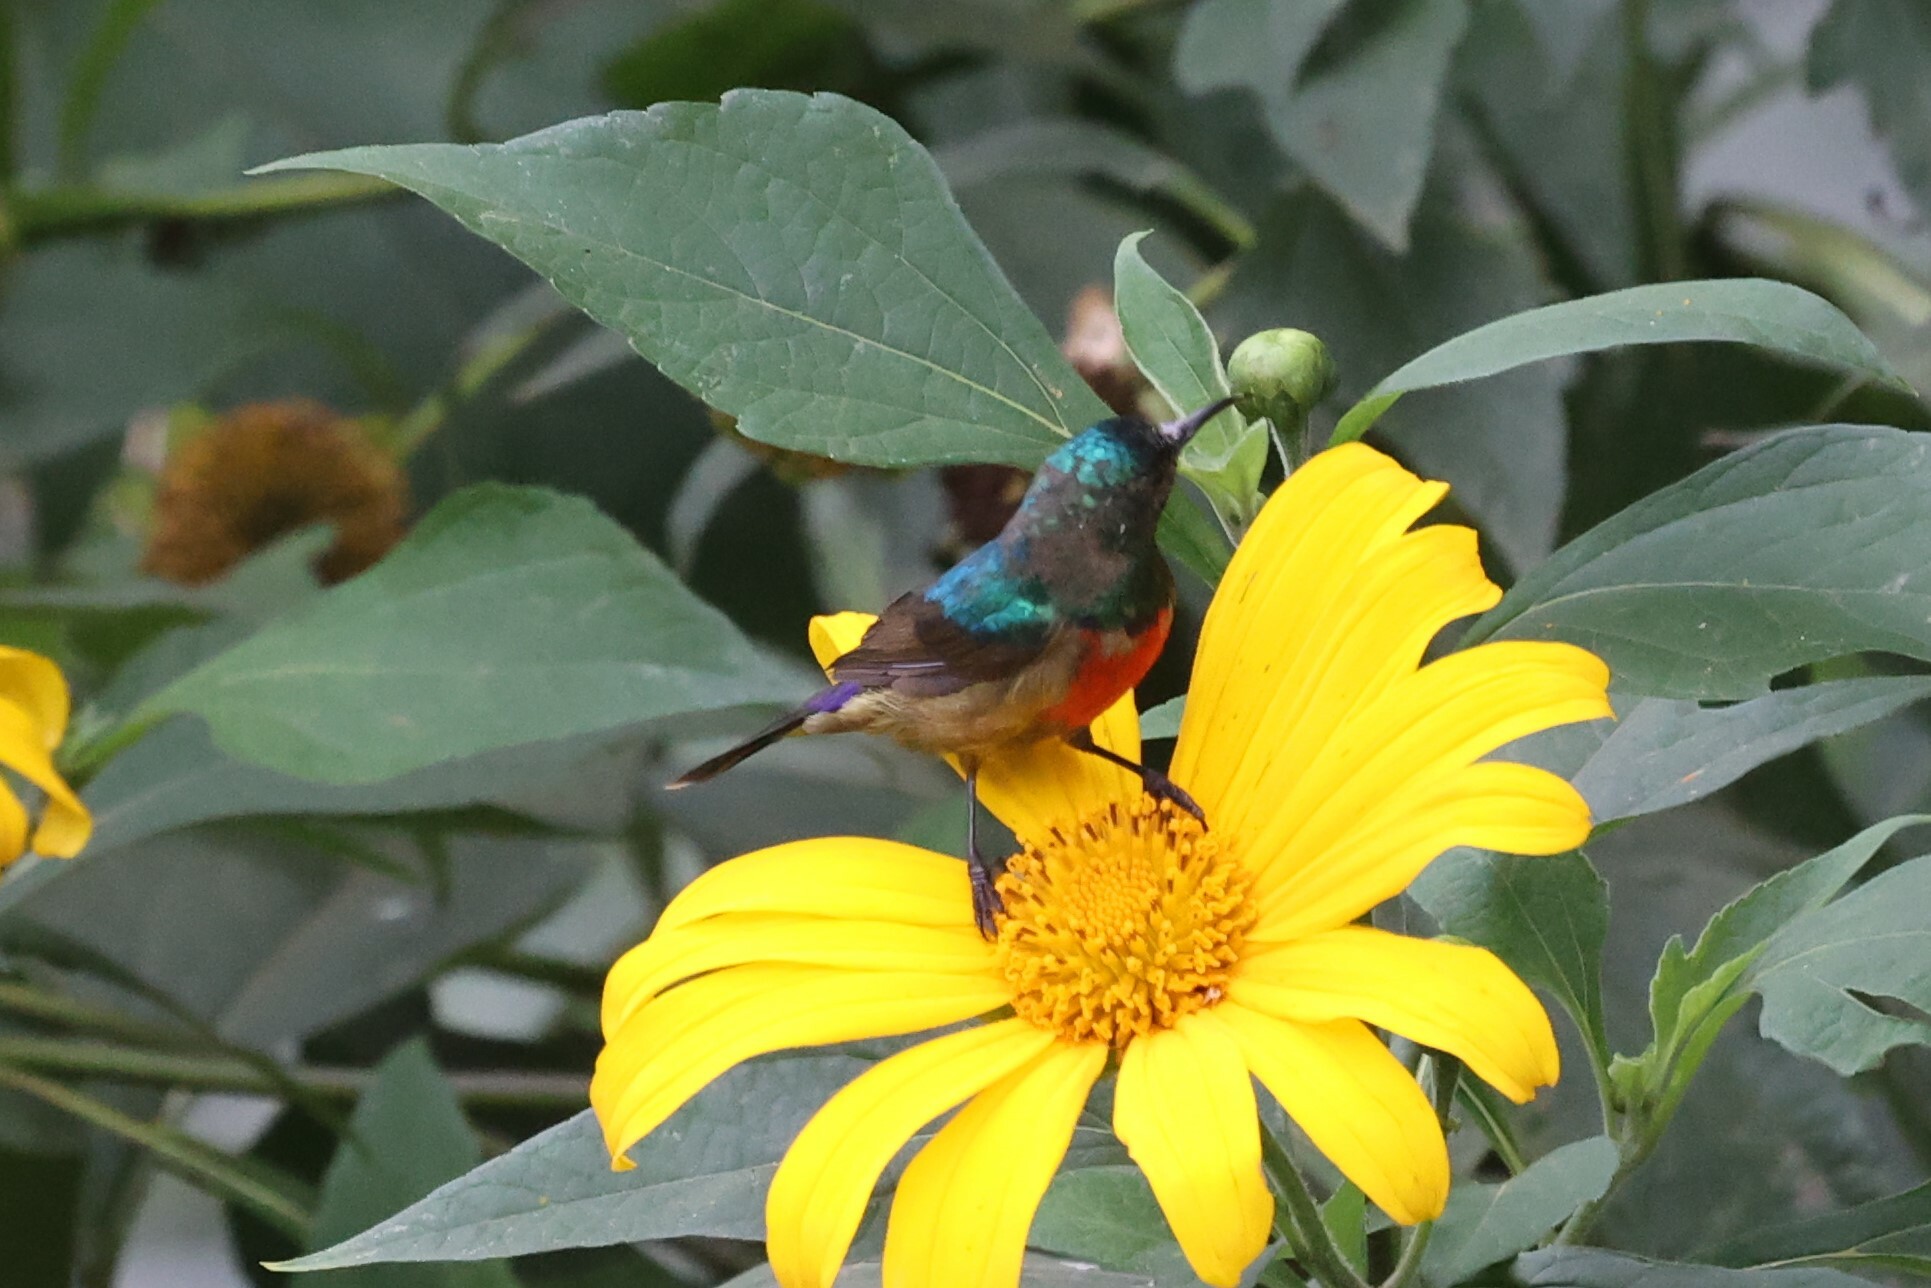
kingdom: Animalia
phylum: Chordata
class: Aves
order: Passeriformes
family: Nectariniidae
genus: Cinnyris
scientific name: Cinnyris reichenowi
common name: Northern double-collared sunbird
